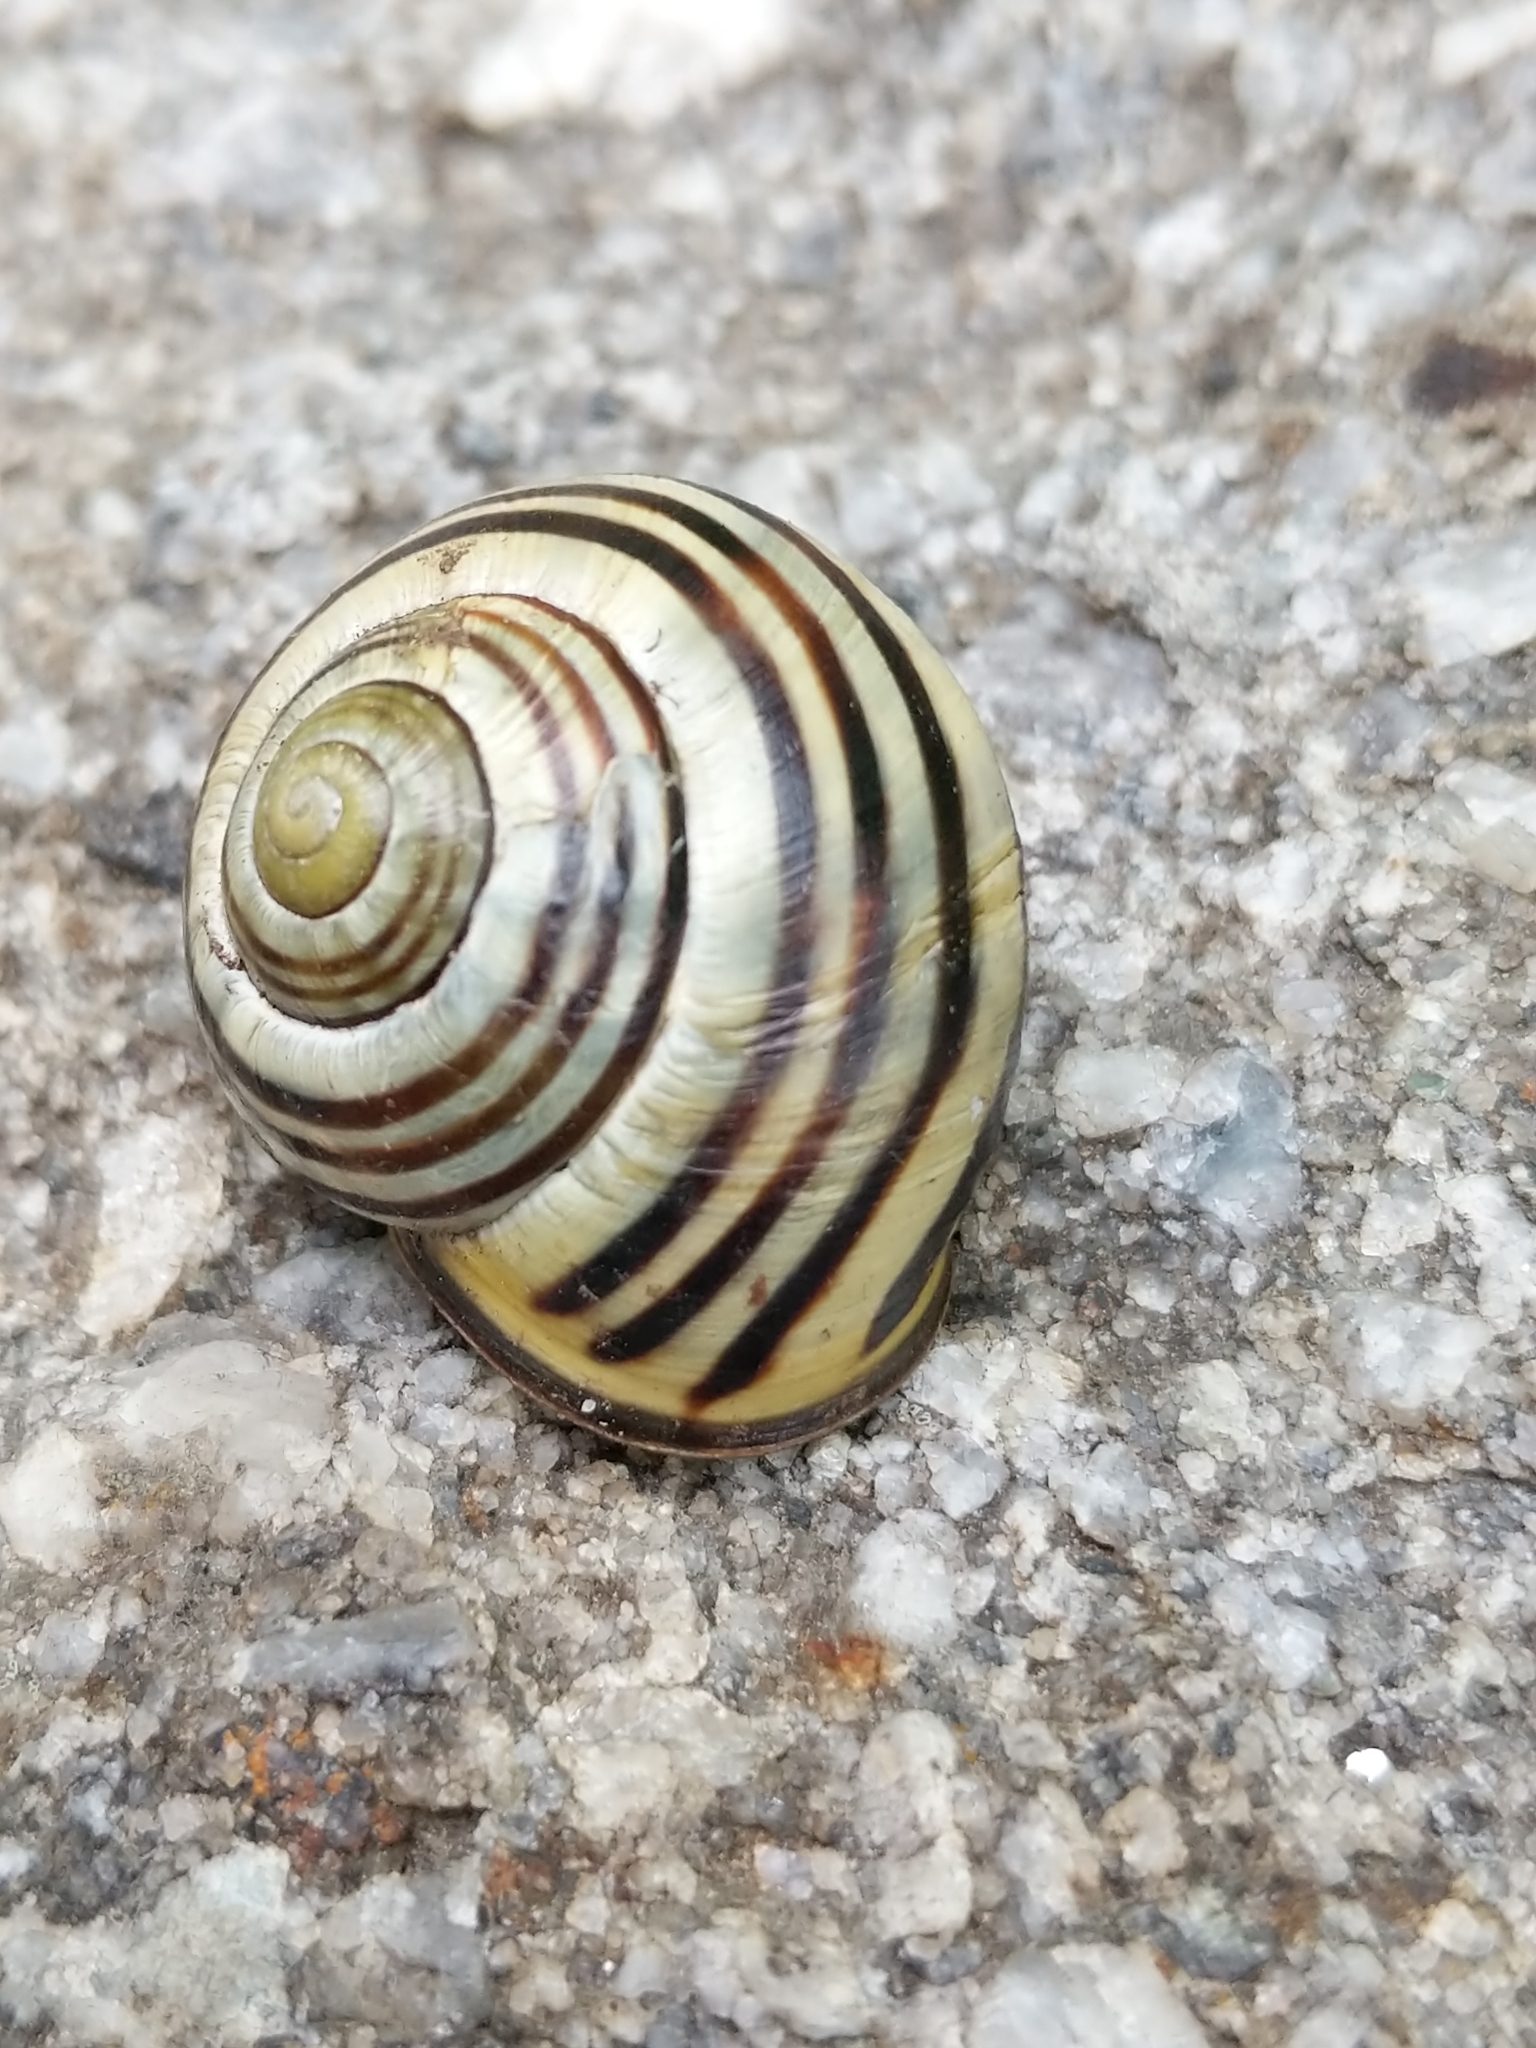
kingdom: Animalia
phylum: Mollusca
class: Gastropoda
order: Stylommatophora
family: Helicidae
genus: Cepaea
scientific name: Cepaea nemoralis
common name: Grovesnail
